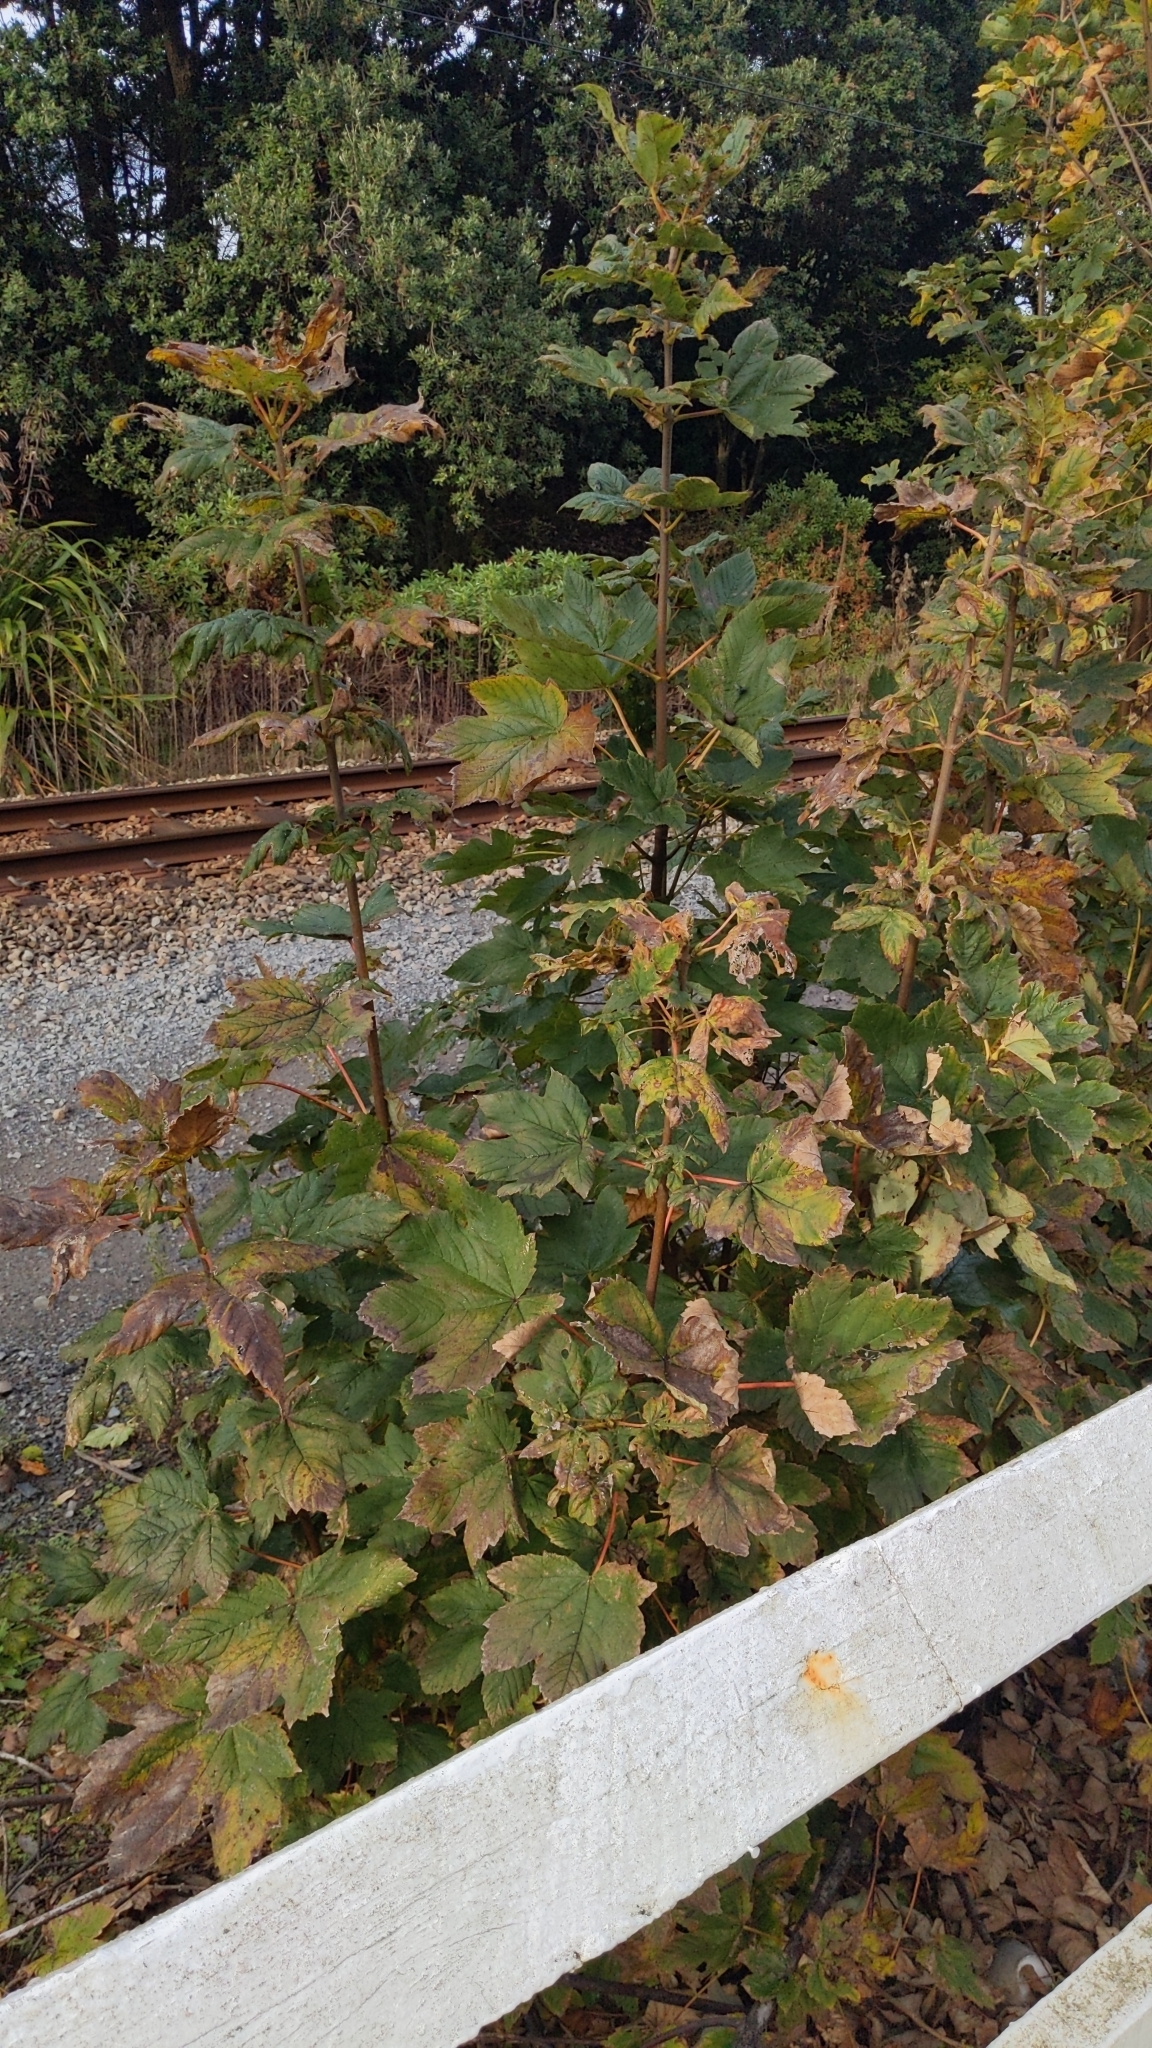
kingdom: Plantae
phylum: Tracheophyta
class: Magnoliopsida
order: Sapindales
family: Sapindaceae
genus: Acer
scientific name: Acer pseudoplatanus
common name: Sycamore
